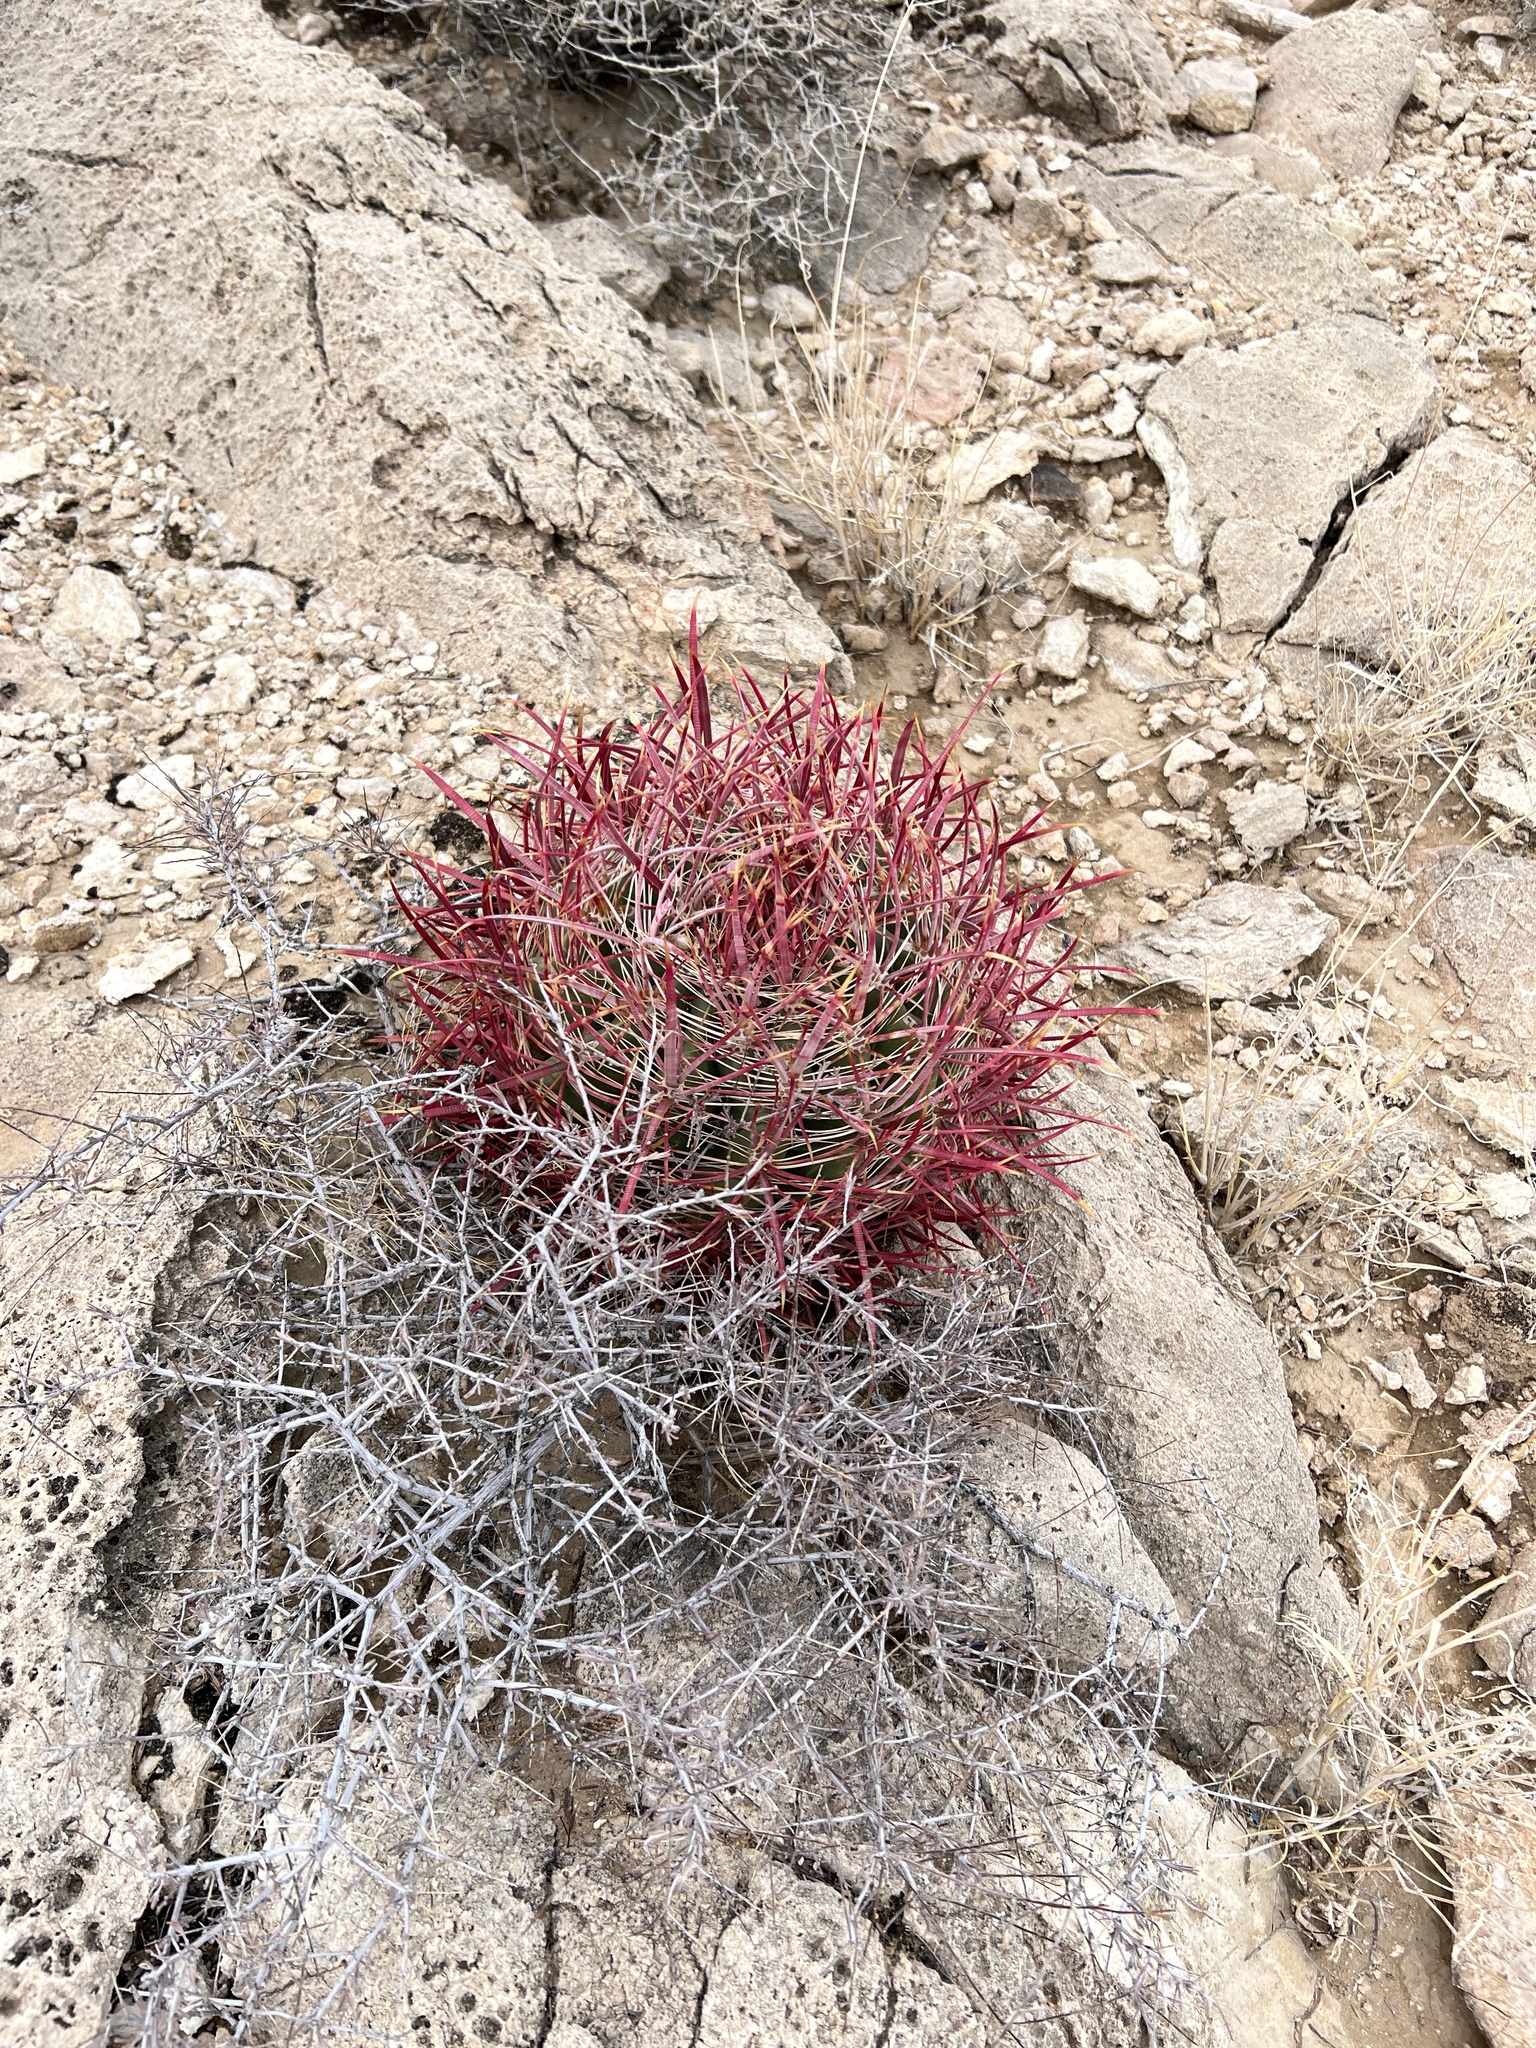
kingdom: Plantae
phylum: Tracheophyta
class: Magnoliopsida
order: Caryophyllales
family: Cactaceae
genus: Ferocactus
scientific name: Ferocactus cylindraceus
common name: California barrel cactus
